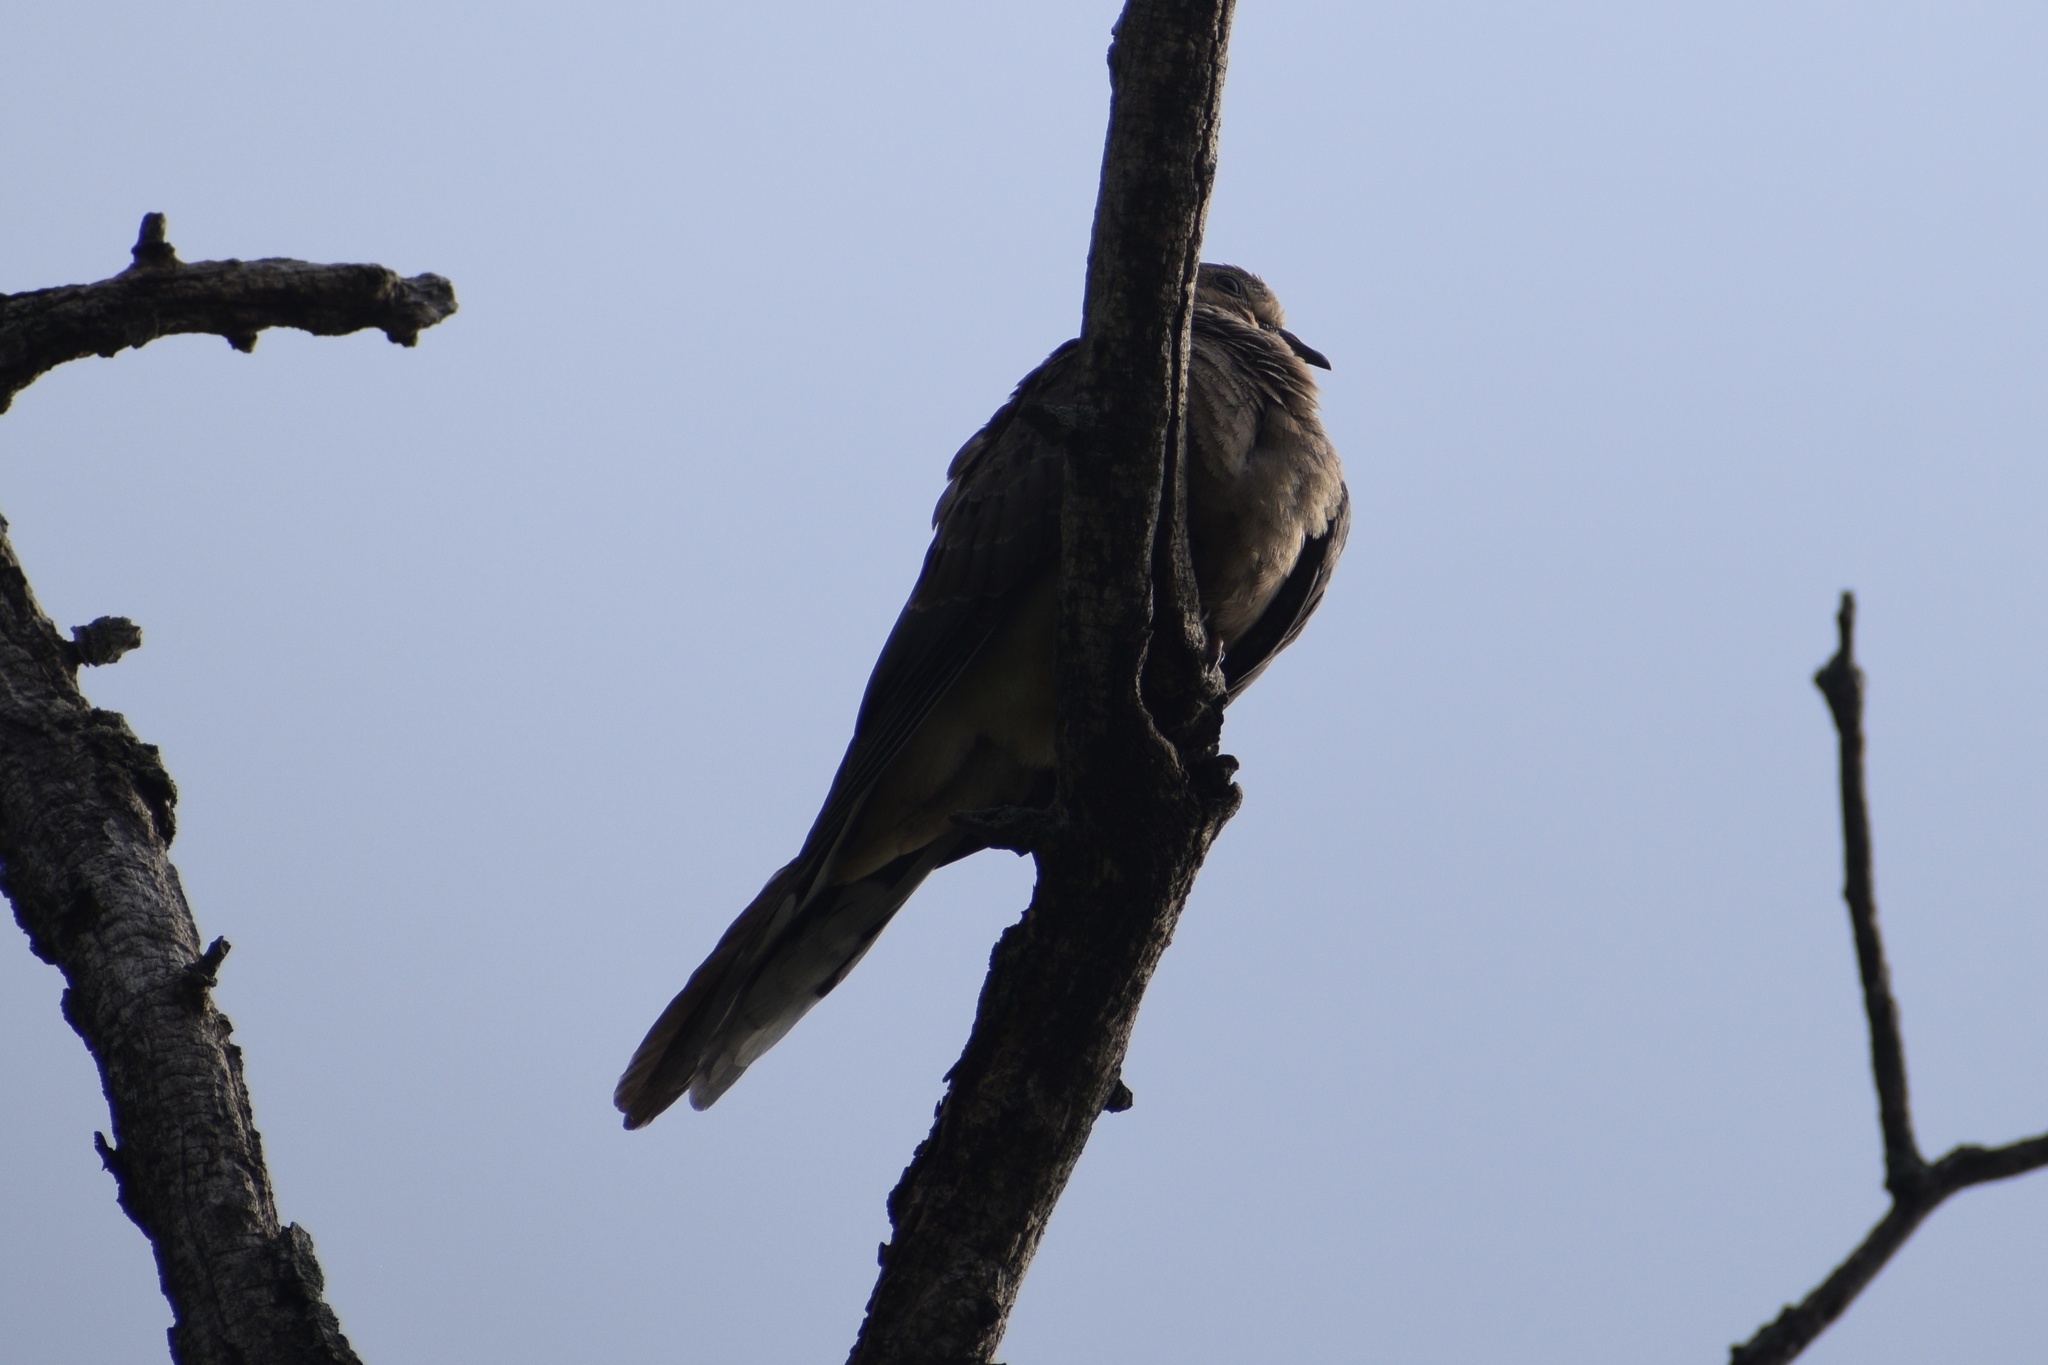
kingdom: Animalia
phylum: Chordata
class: Aves
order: Columbiformes
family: Columbidae
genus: Zenaida
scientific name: Zenaida macroura
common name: Mourning dove
